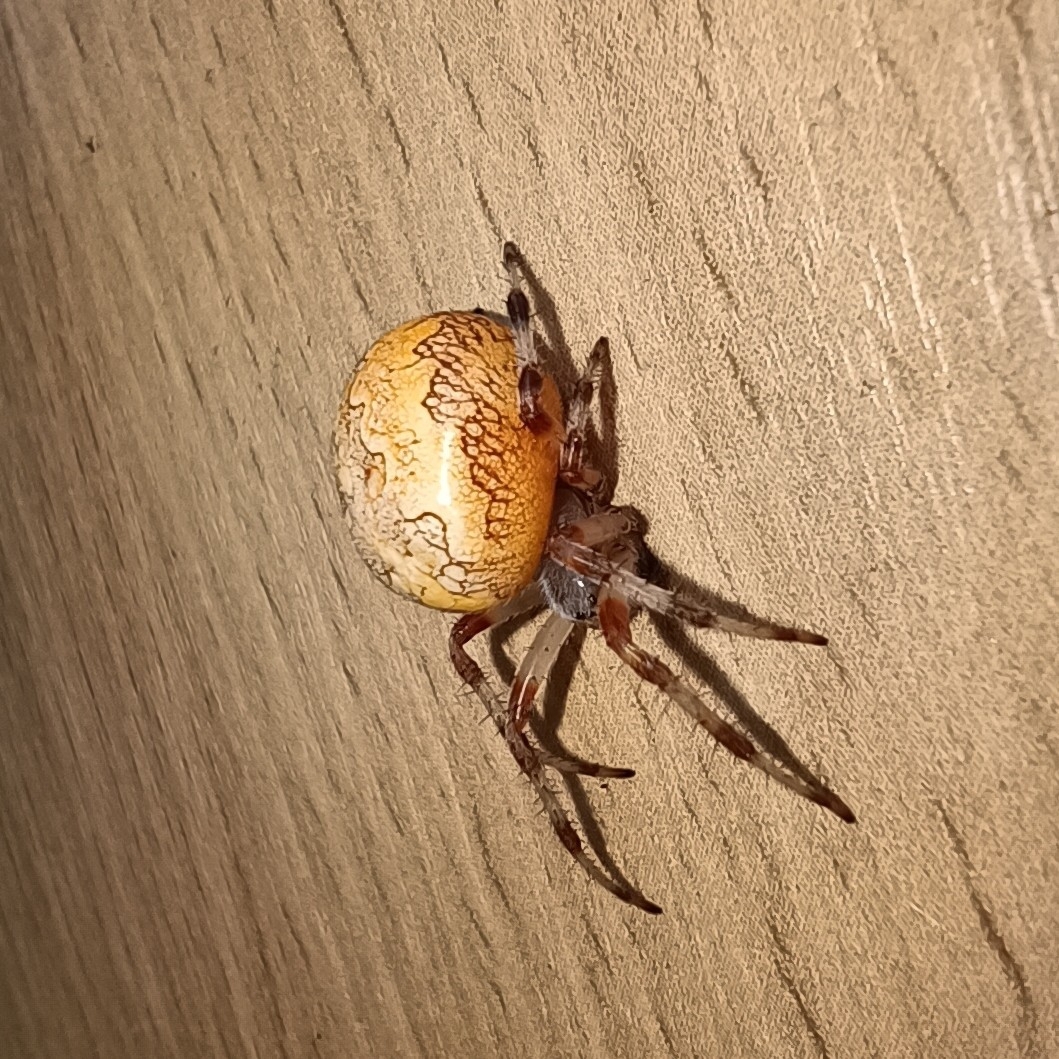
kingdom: Animalia
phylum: Arthropoda
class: Arachnida
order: Araneae
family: Araneidae
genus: Araneus
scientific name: Araneus marmoreus
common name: Marbled orbweaver
